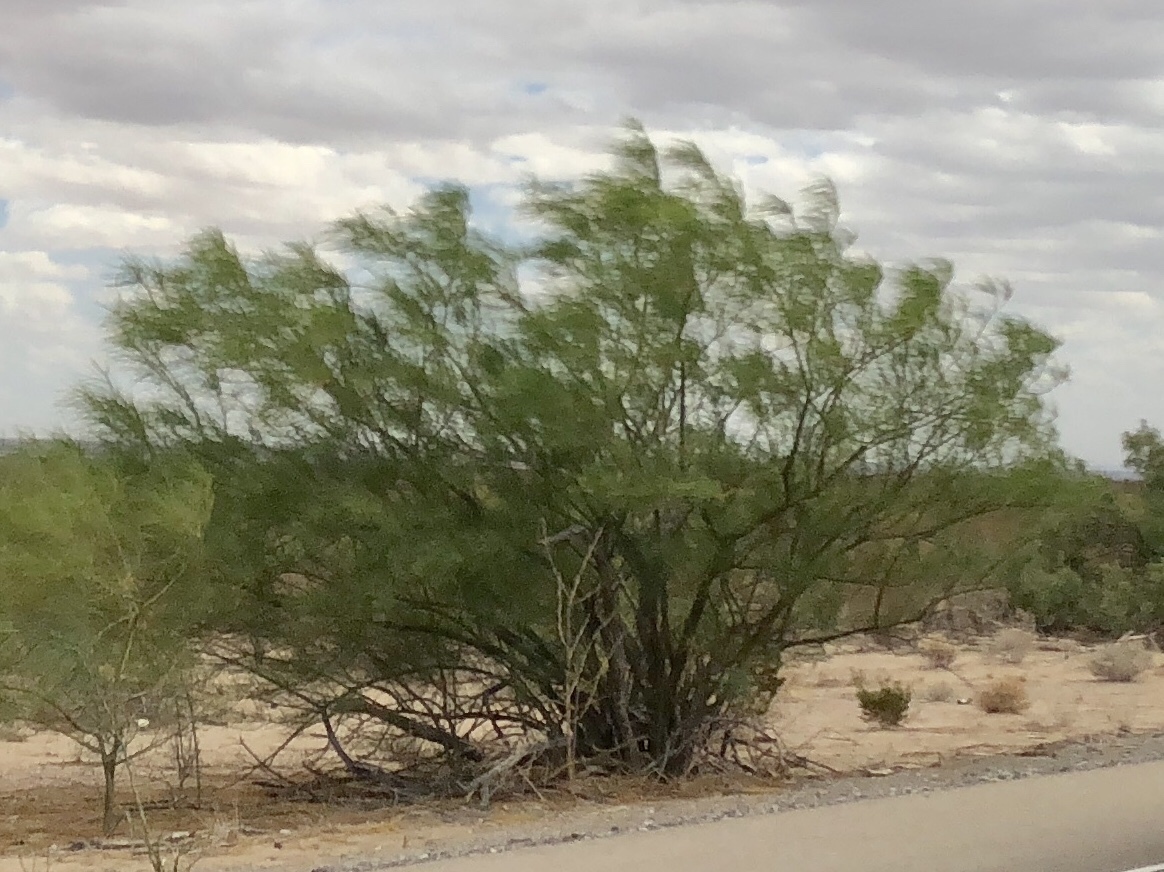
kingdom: Plantae
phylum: Tracheophyta
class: Magnoliopsida
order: Fabales
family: Fabaceae
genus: Parkinsonia
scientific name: Parkinsonia aculeata
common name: Jerusalem thorn
